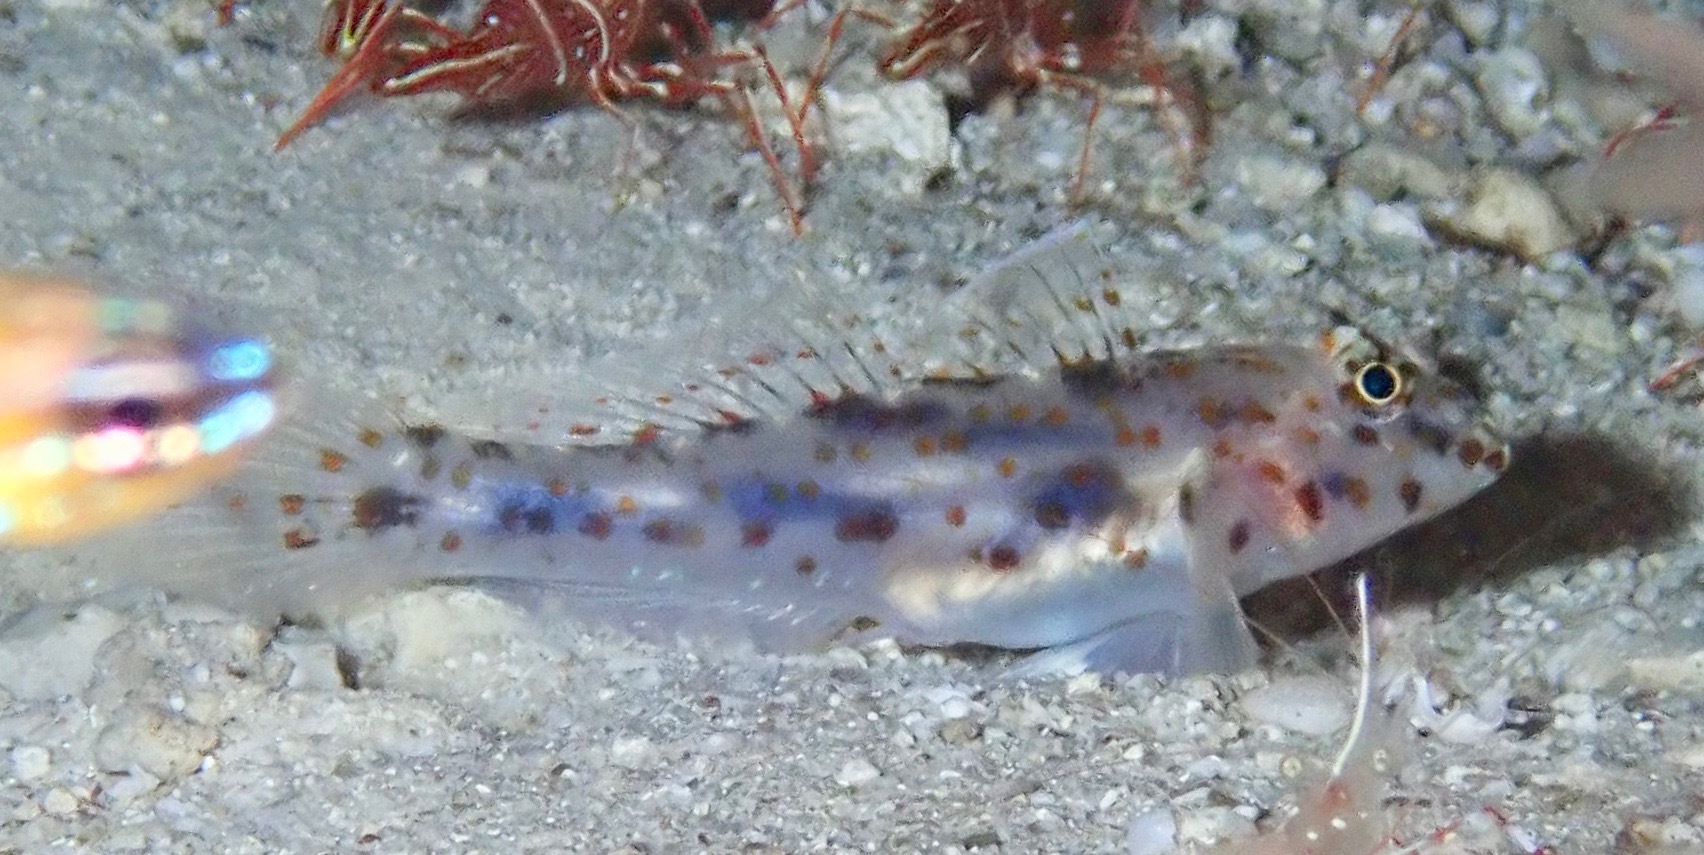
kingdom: Animalia
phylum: Chordata
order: Perciformes
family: Gobiidae
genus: Fusigobius
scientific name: Fusigobius maximus
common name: Large sandgoby
